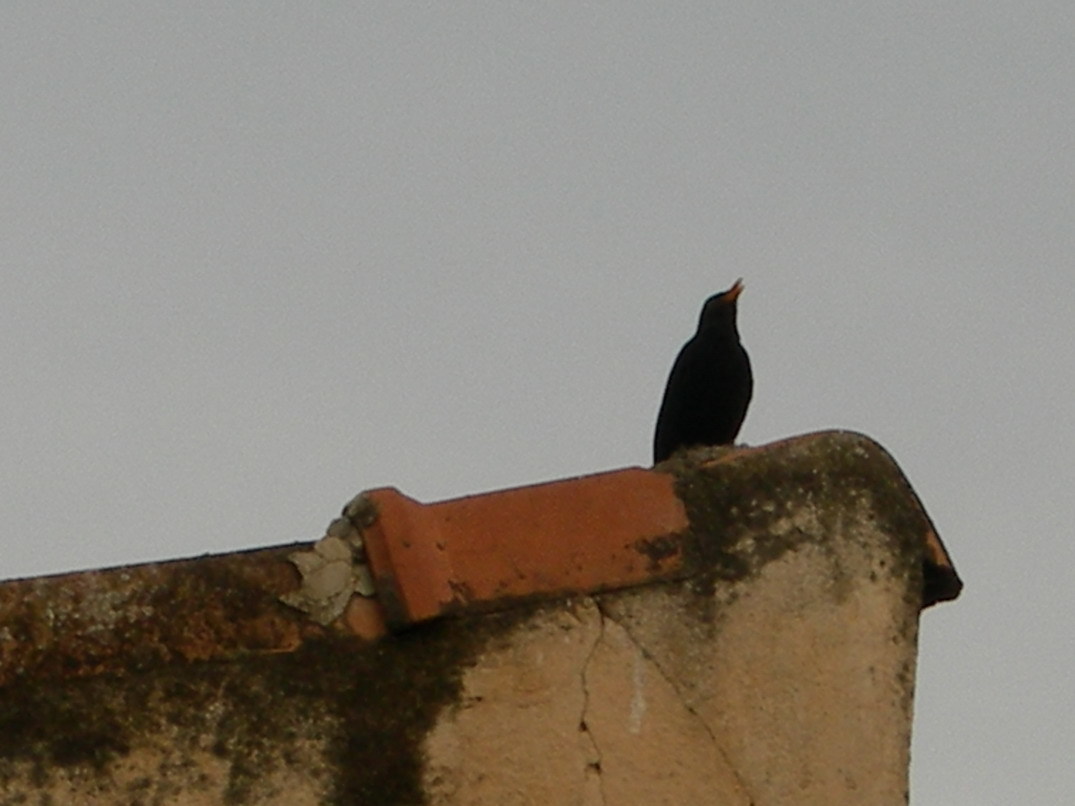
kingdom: Animalia
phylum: Chordata
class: Aves
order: Passeriformes
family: Turdidae
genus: Turdus
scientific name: Turdus merula
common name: Common blackbird
